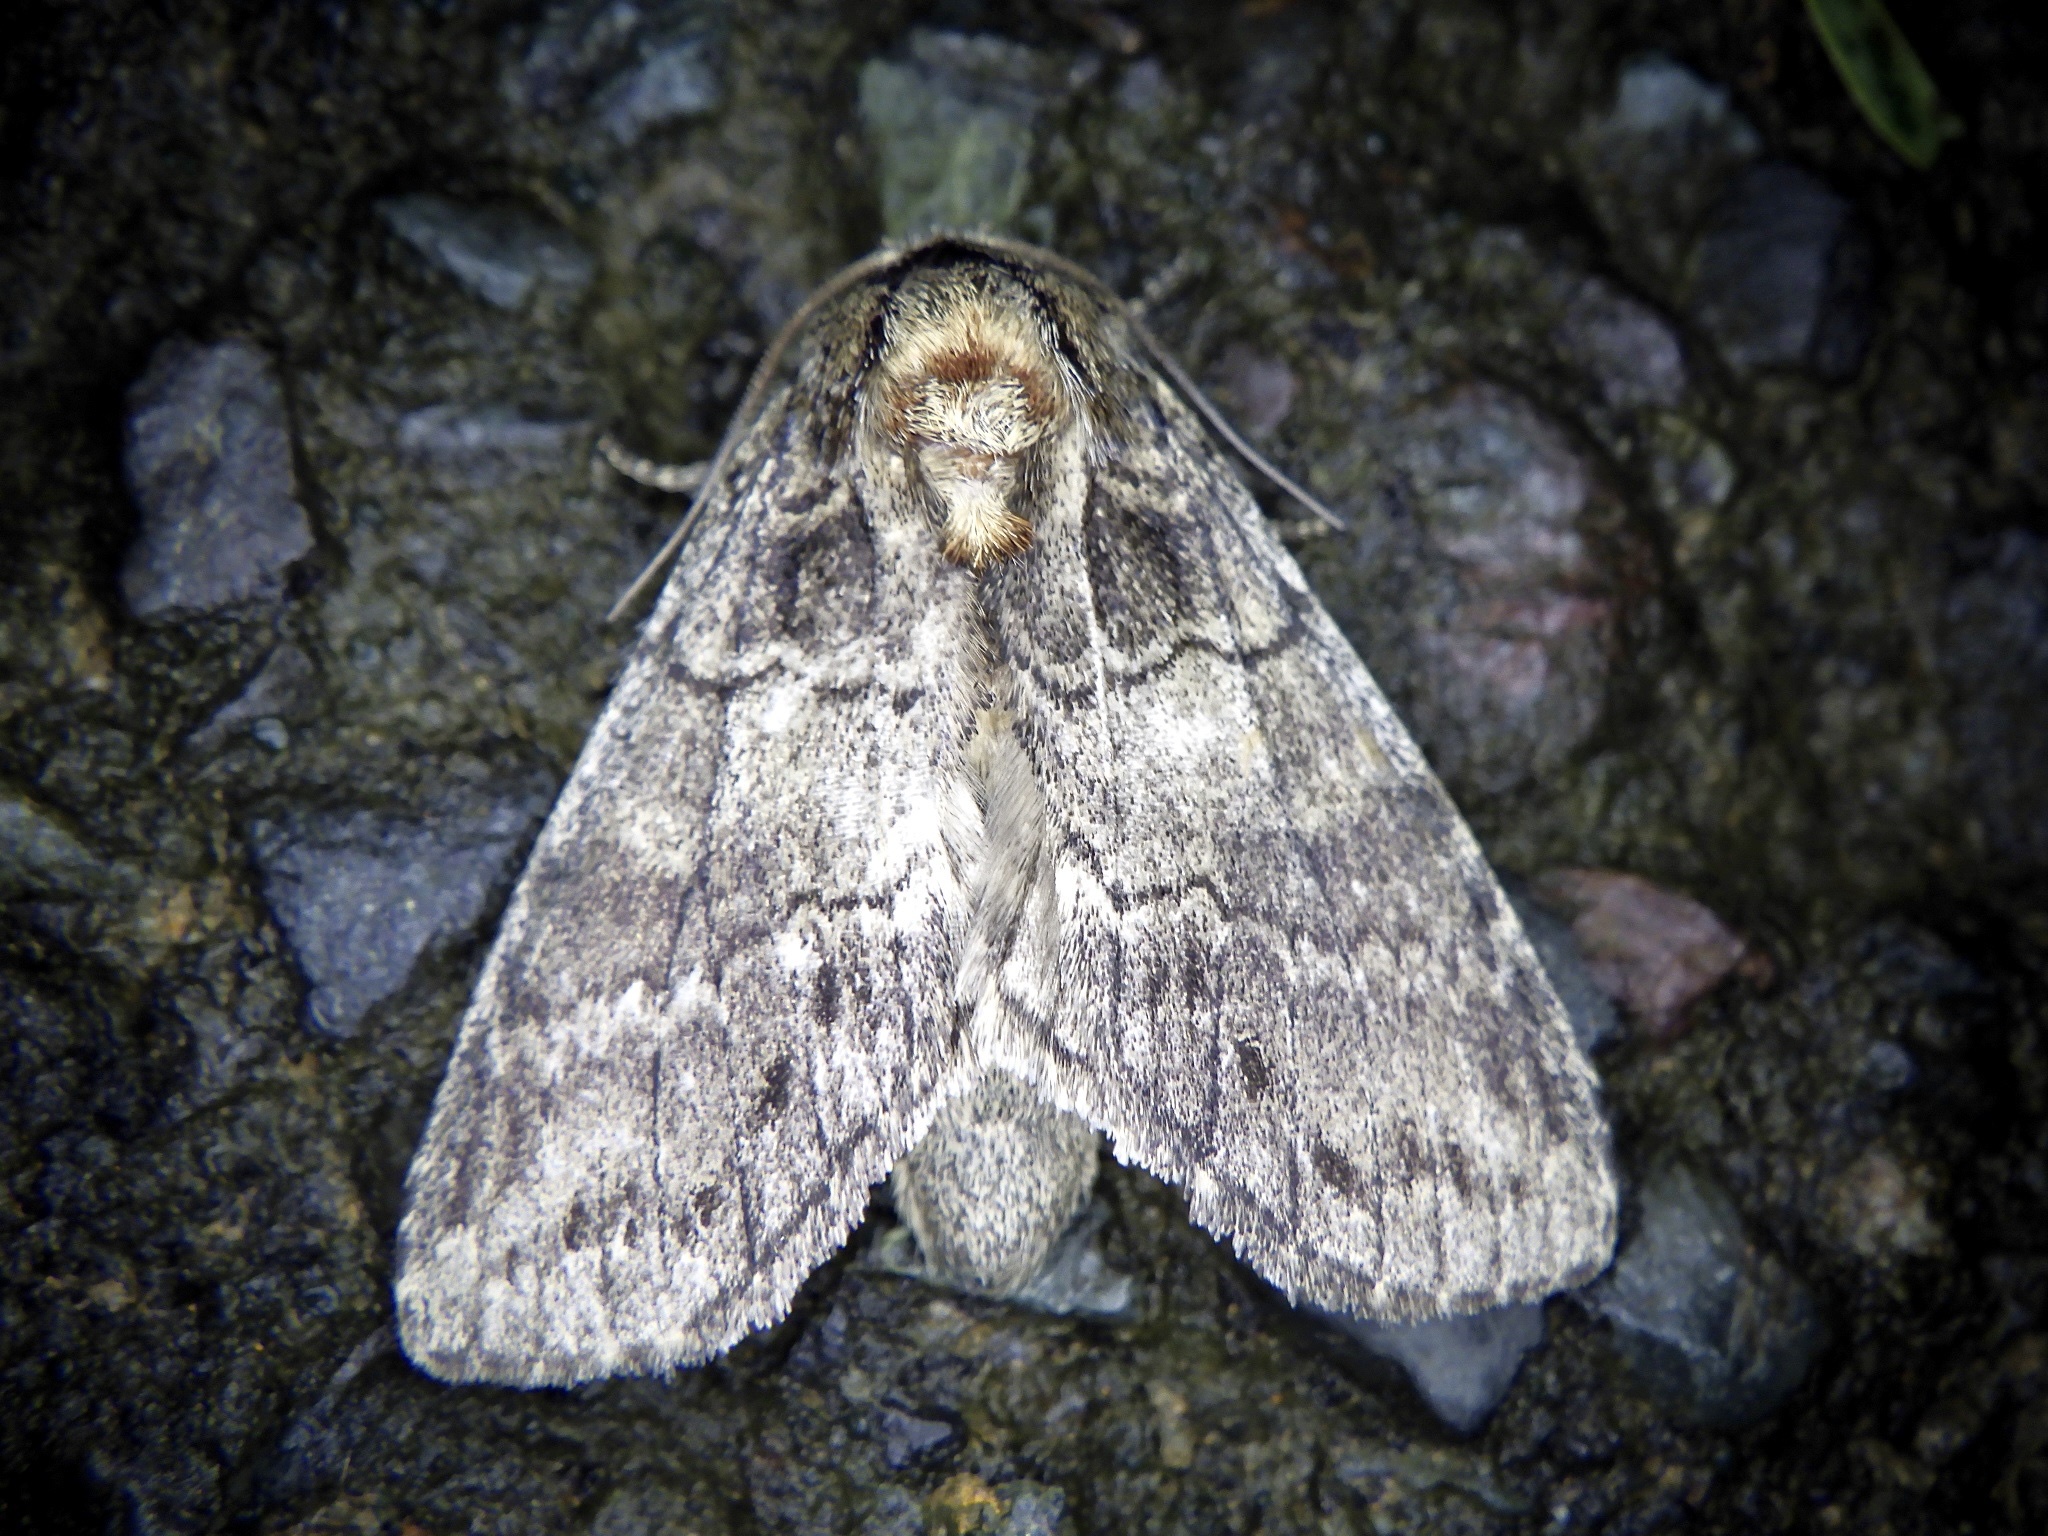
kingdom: Animalia
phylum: Arthropoda
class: Insecta
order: Lepidoptera
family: Notodontidae
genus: Peridea
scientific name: Peridea oberthueri
